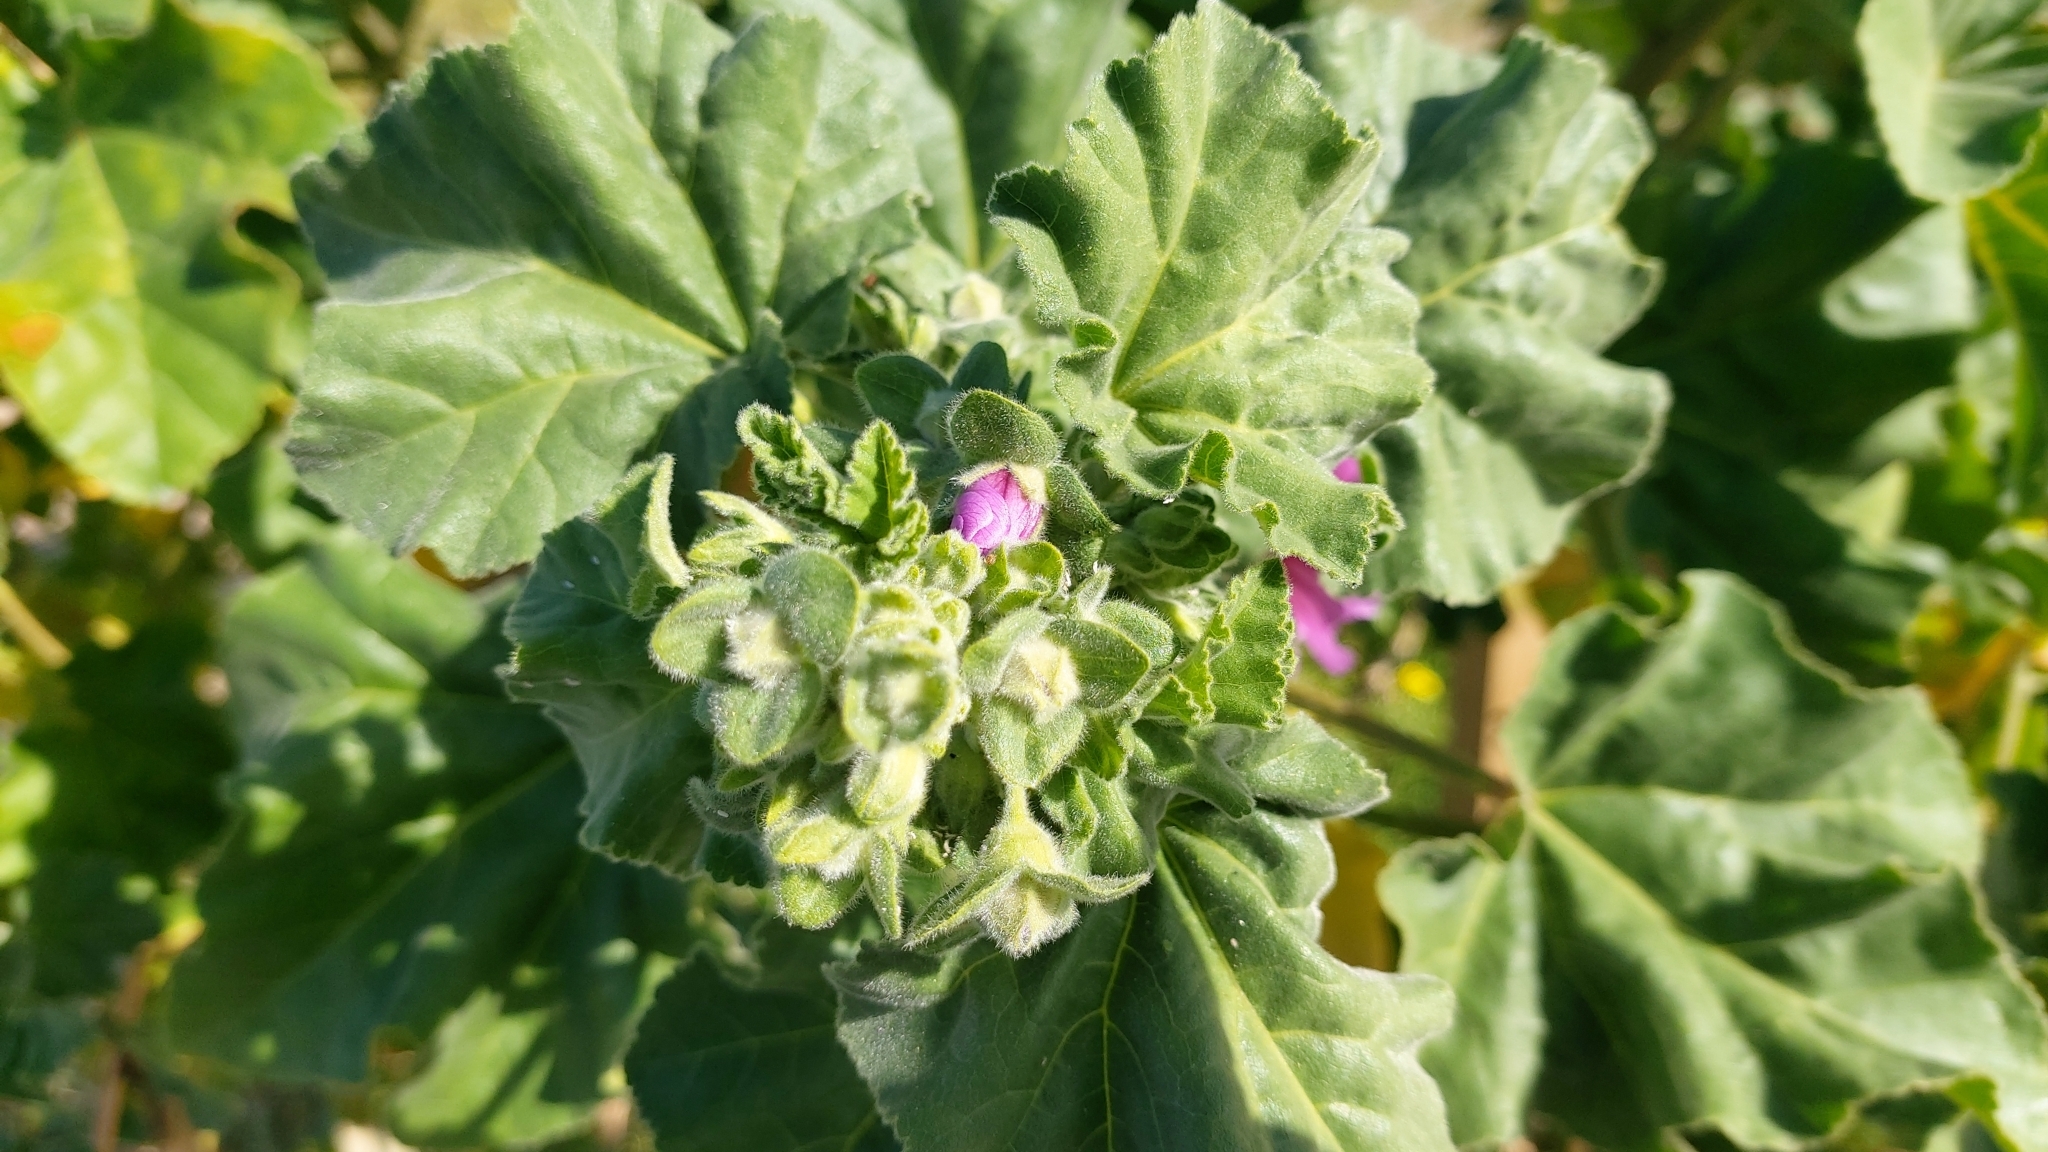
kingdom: Plantae
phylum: Tracheophyta
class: Magnoliopsida
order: Malvales
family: Malvaceae
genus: Malva
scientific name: Malva arborea
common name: Tree mallow
